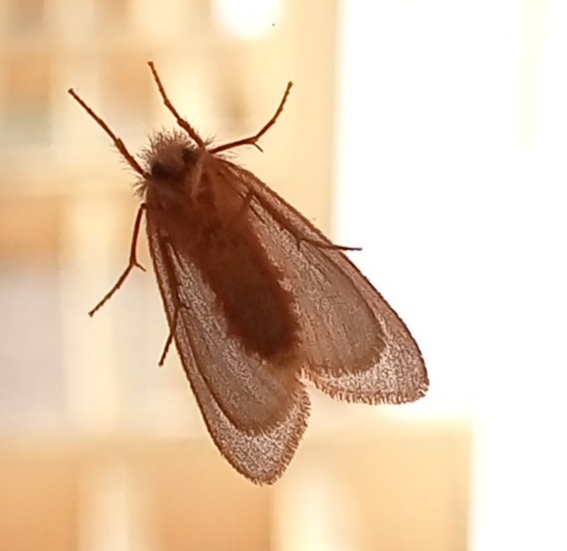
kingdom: Animalia
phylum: Arthropoda
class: Insecta
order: Lepidoptera
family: Erebidae
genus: Ocneria
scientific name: Ocneria rubea
